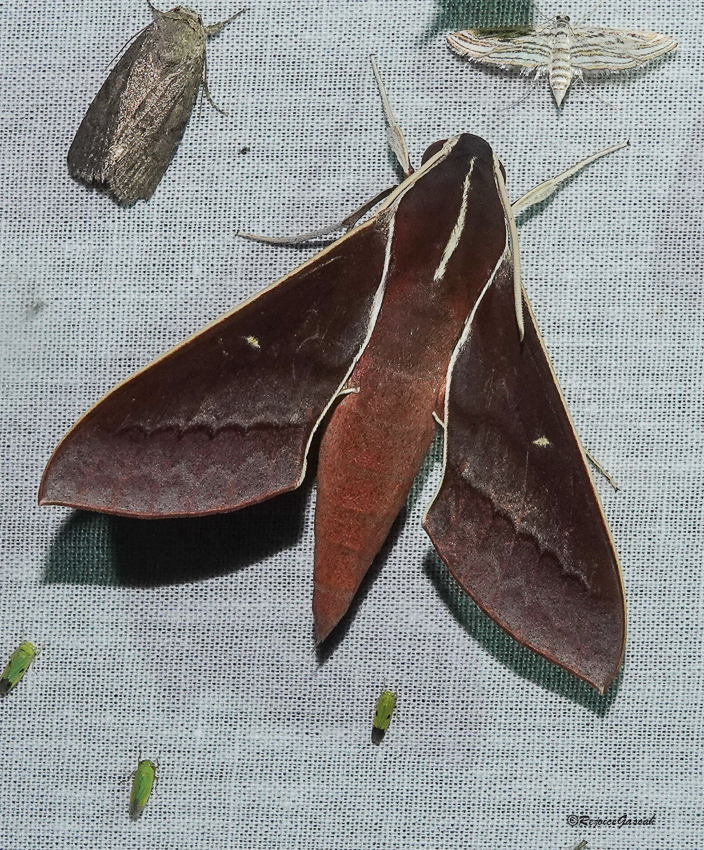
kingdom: Animalia
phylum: Arthropoda
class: Insecta
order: Lepidoptera
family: Sphingidae
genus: Theretra
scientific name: Theretra pallicosta
